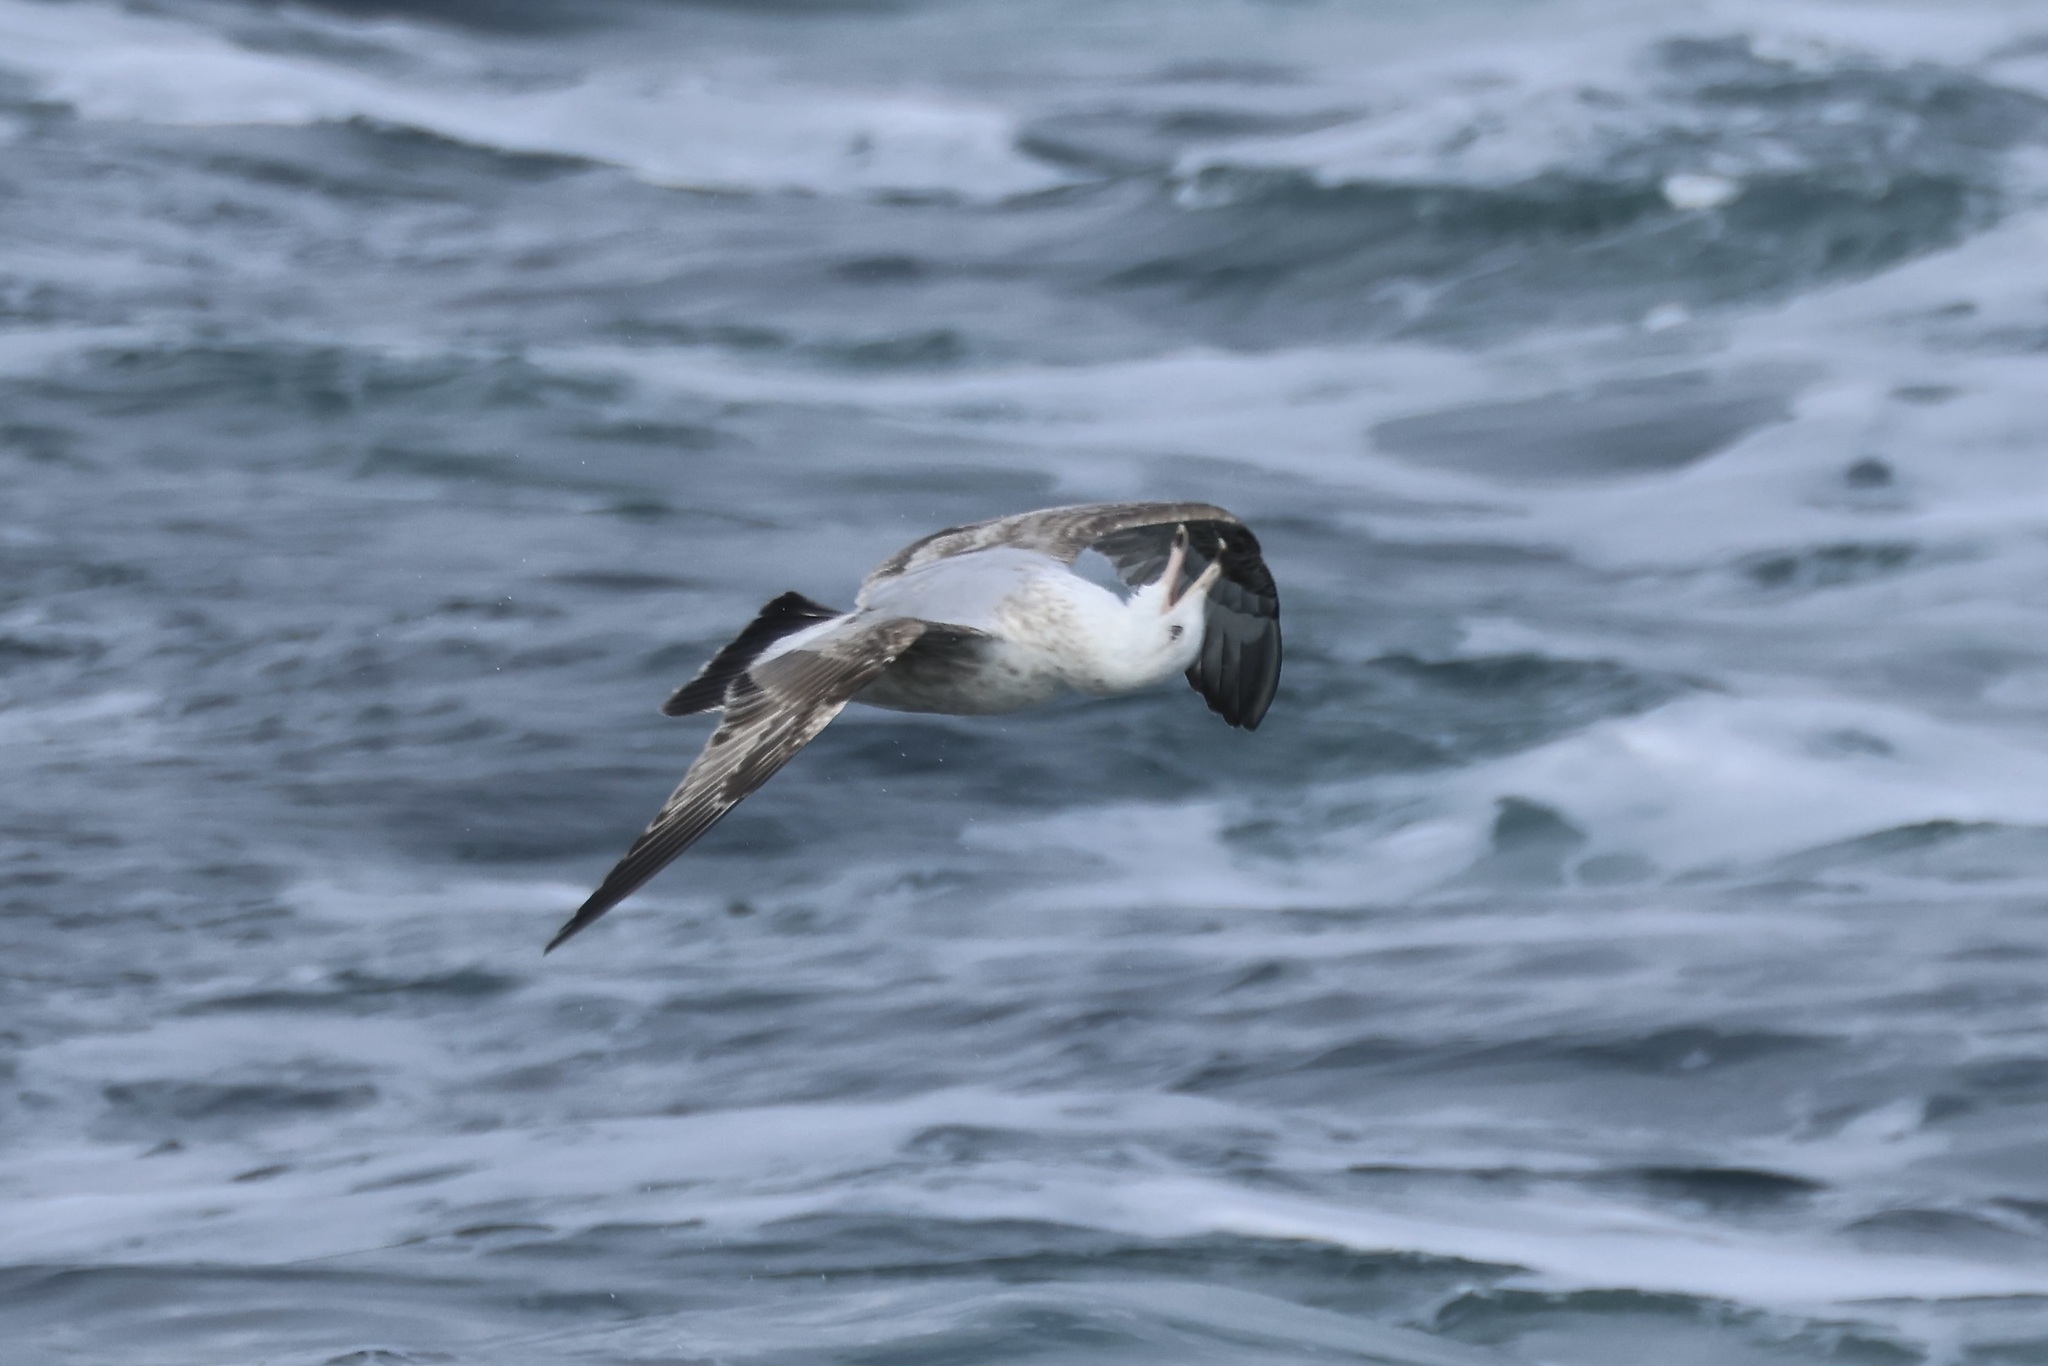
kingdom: Animalia
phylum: Chordata
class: Aves
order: Charadriiformes
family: Laridae
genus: Larus
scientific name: Larus argentatus
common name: Herring gull
